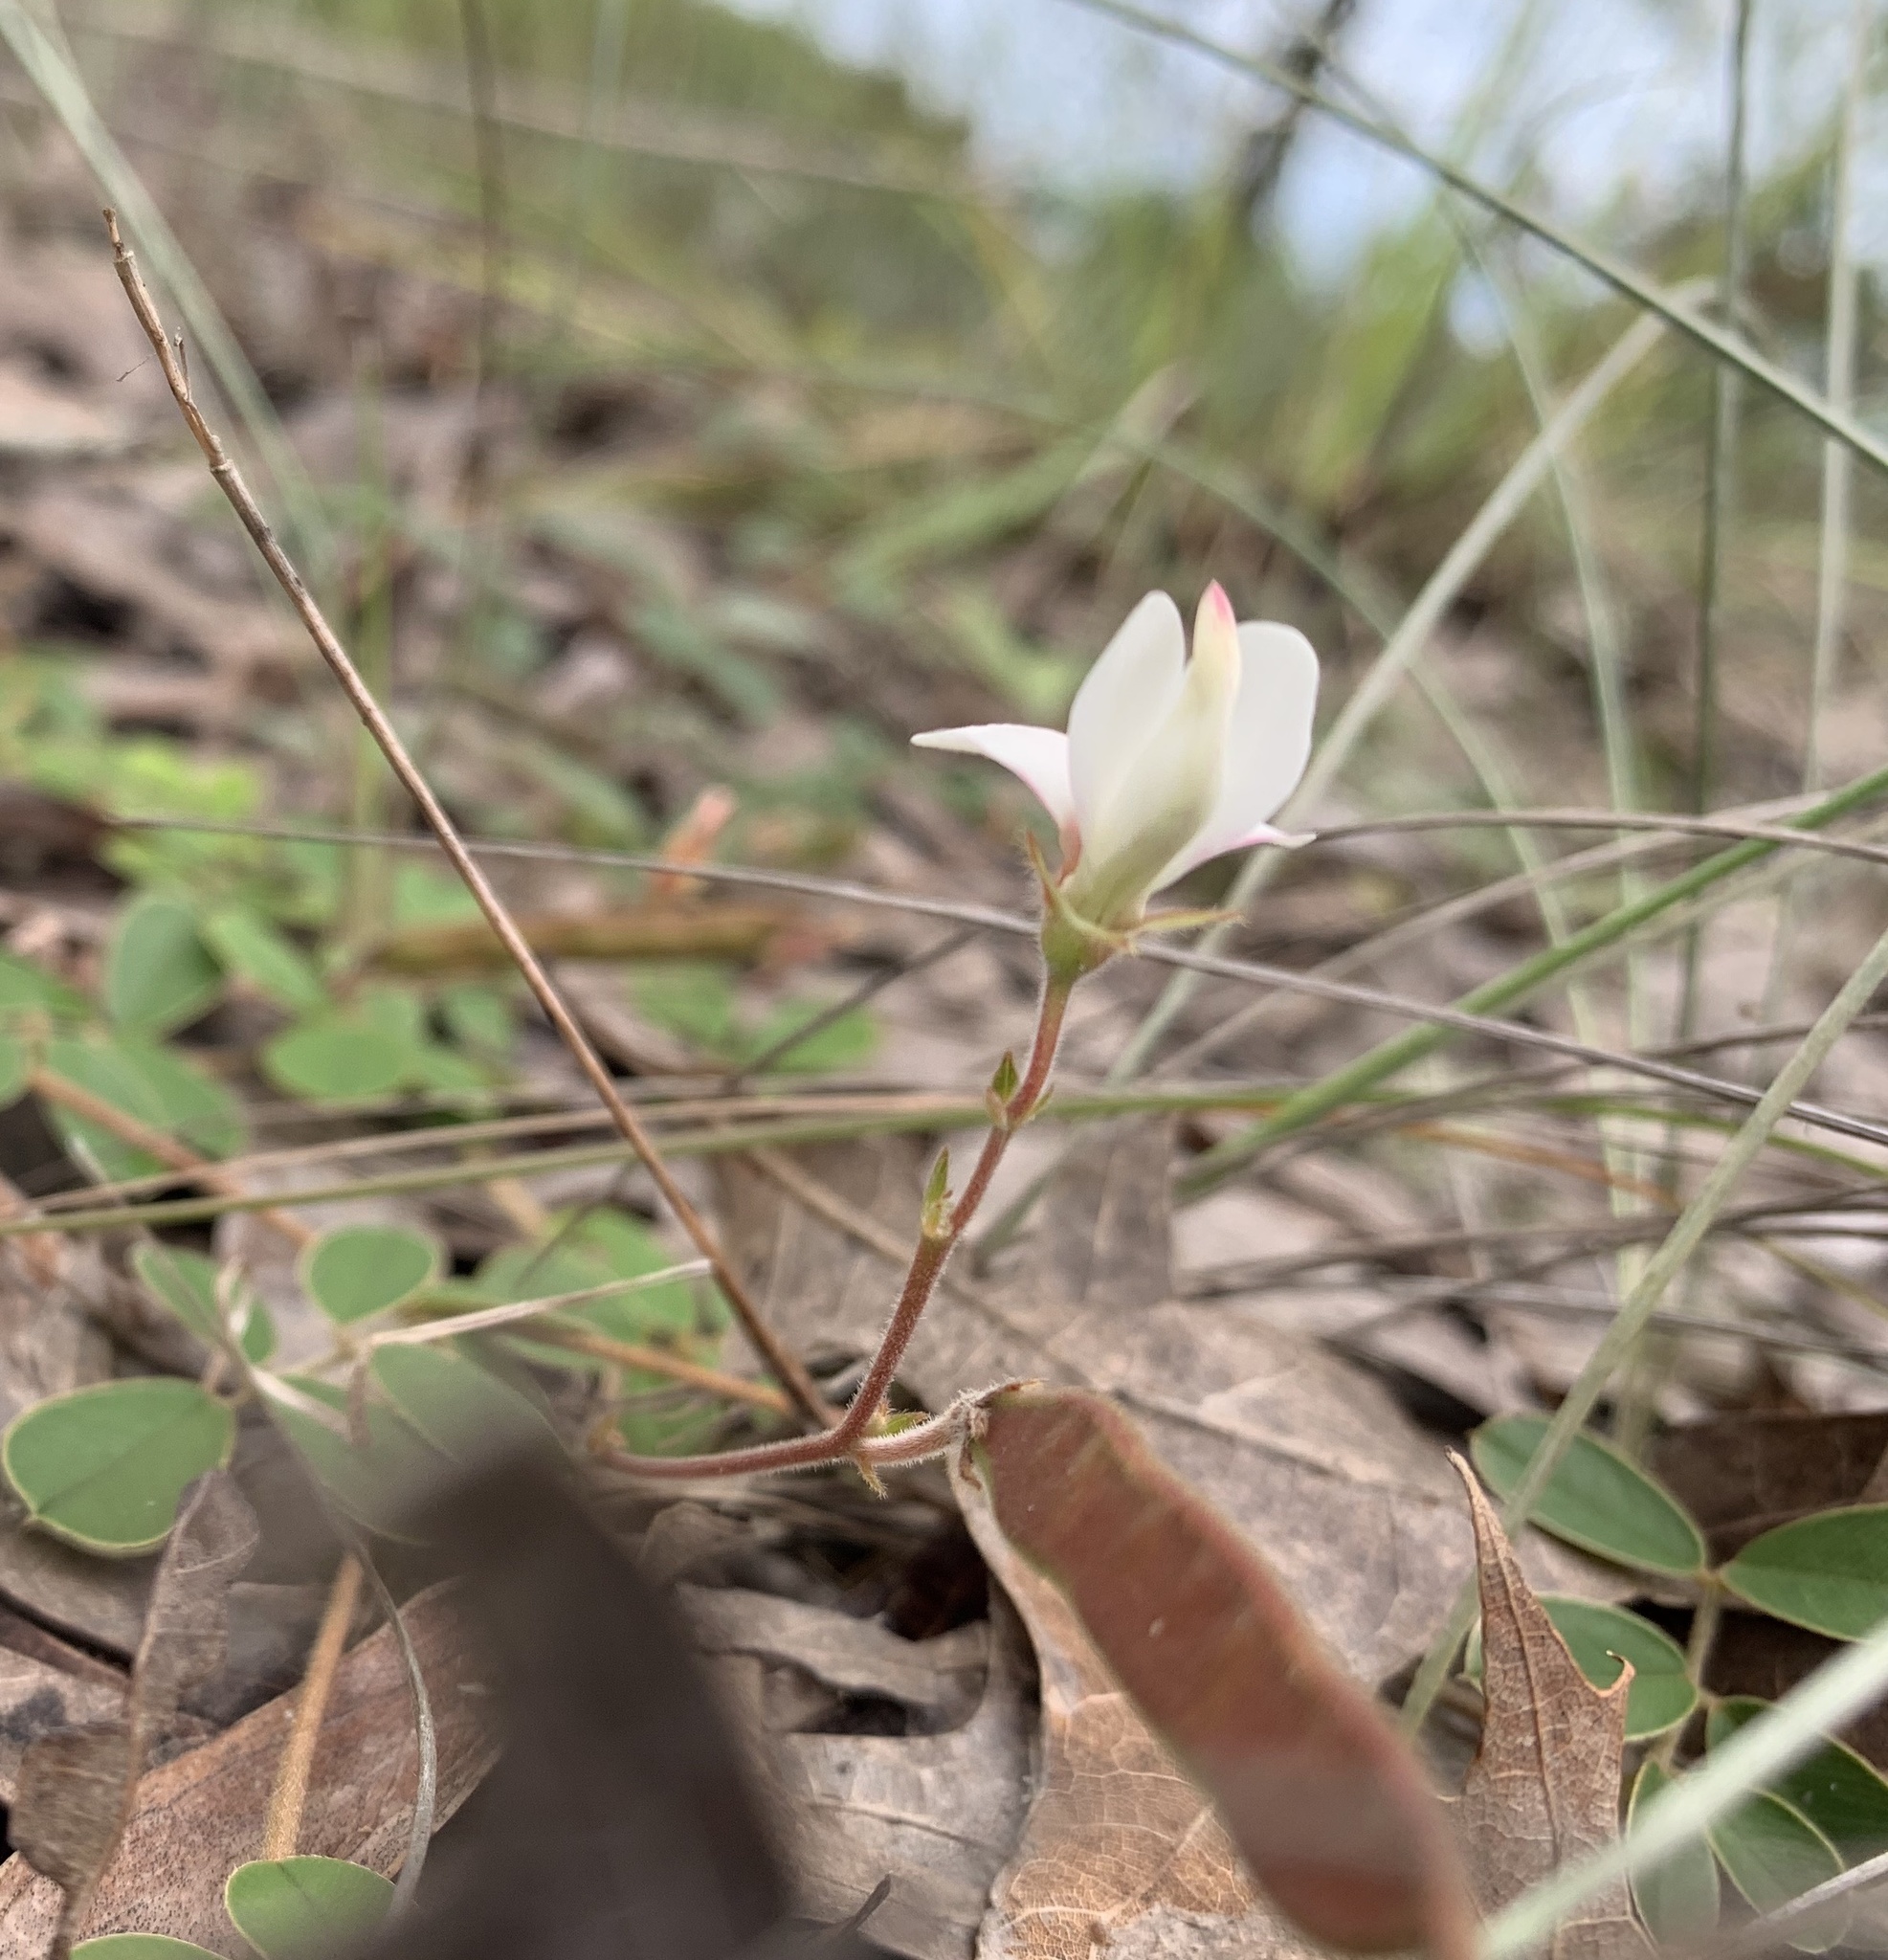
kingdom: Plantae
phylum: Tracheophyta
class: Magnoliopsida
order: Fabales
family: Fabaceae
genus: Tephrosia
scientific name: Tephrosia chrysophylla
